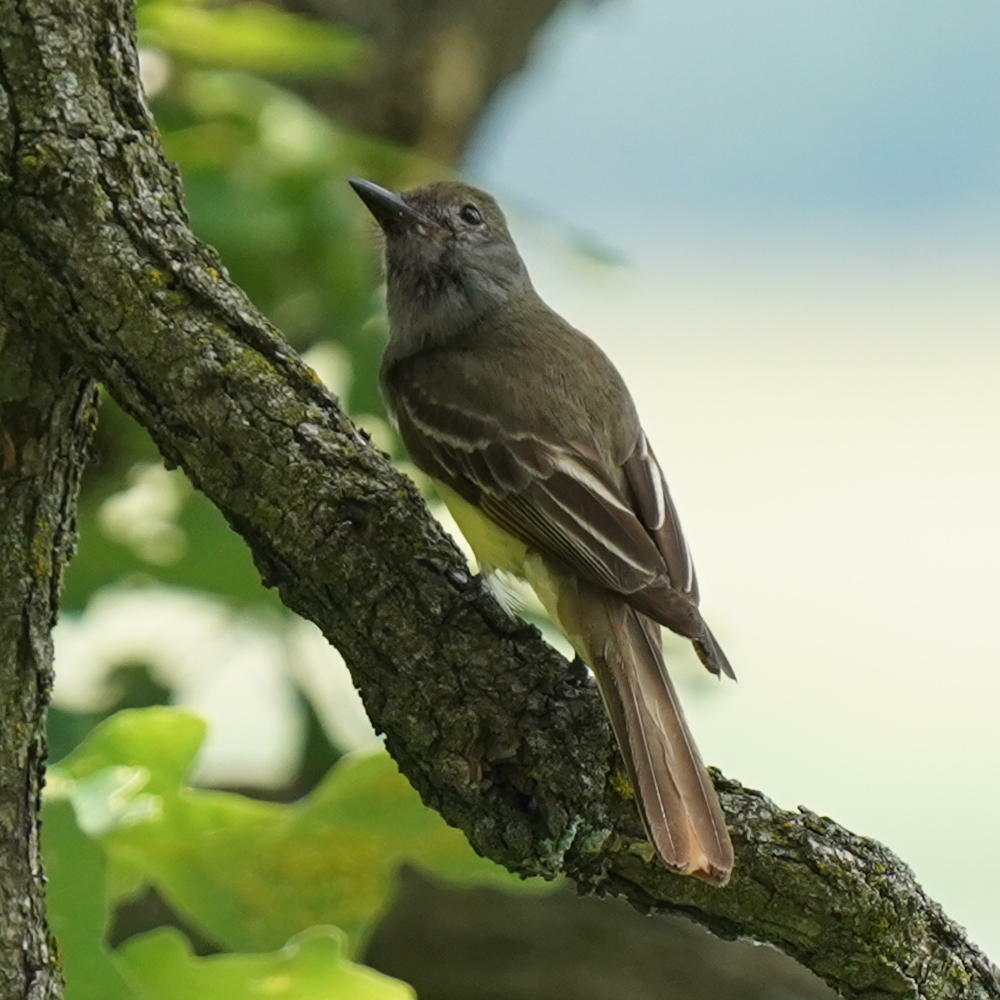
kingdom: Animalia
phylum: Chordata
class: Aves
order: Passeriformes
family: Tyrannidae
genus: Myiarchus
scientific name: Myiarchus crinitus
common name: Great crested flycatcher
